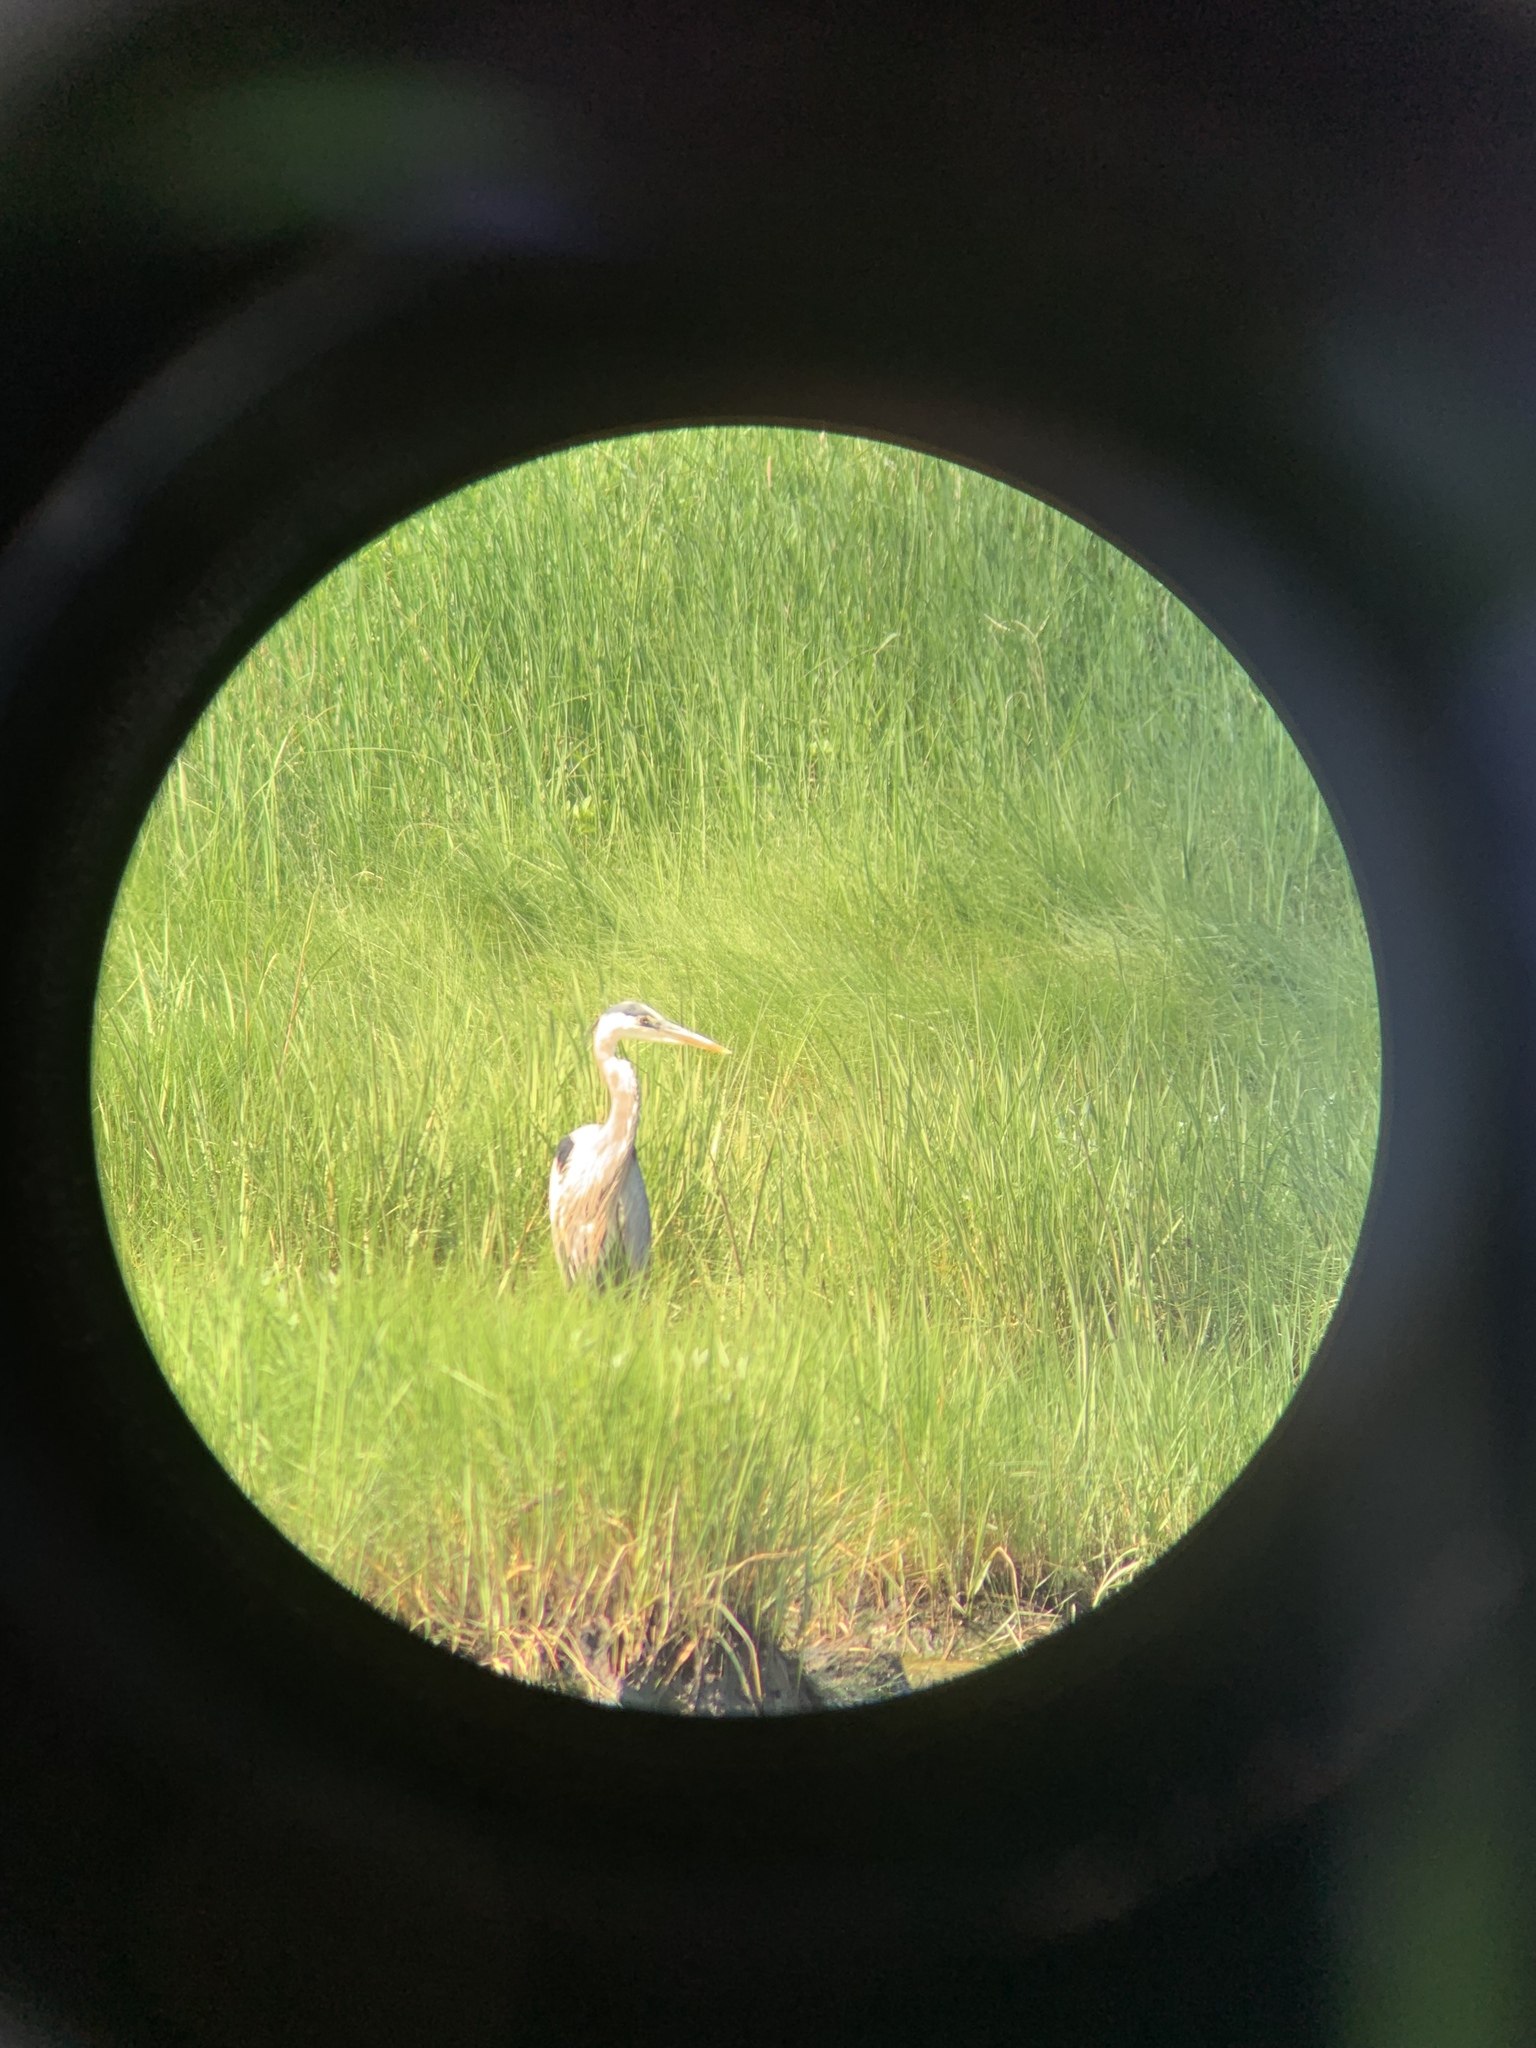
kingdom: Animalia
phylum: Chordata
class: Aves
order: Pelecaniformes
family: Ardeidae
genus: Ardea
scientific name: Ardea herodias
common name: Great blue heron
